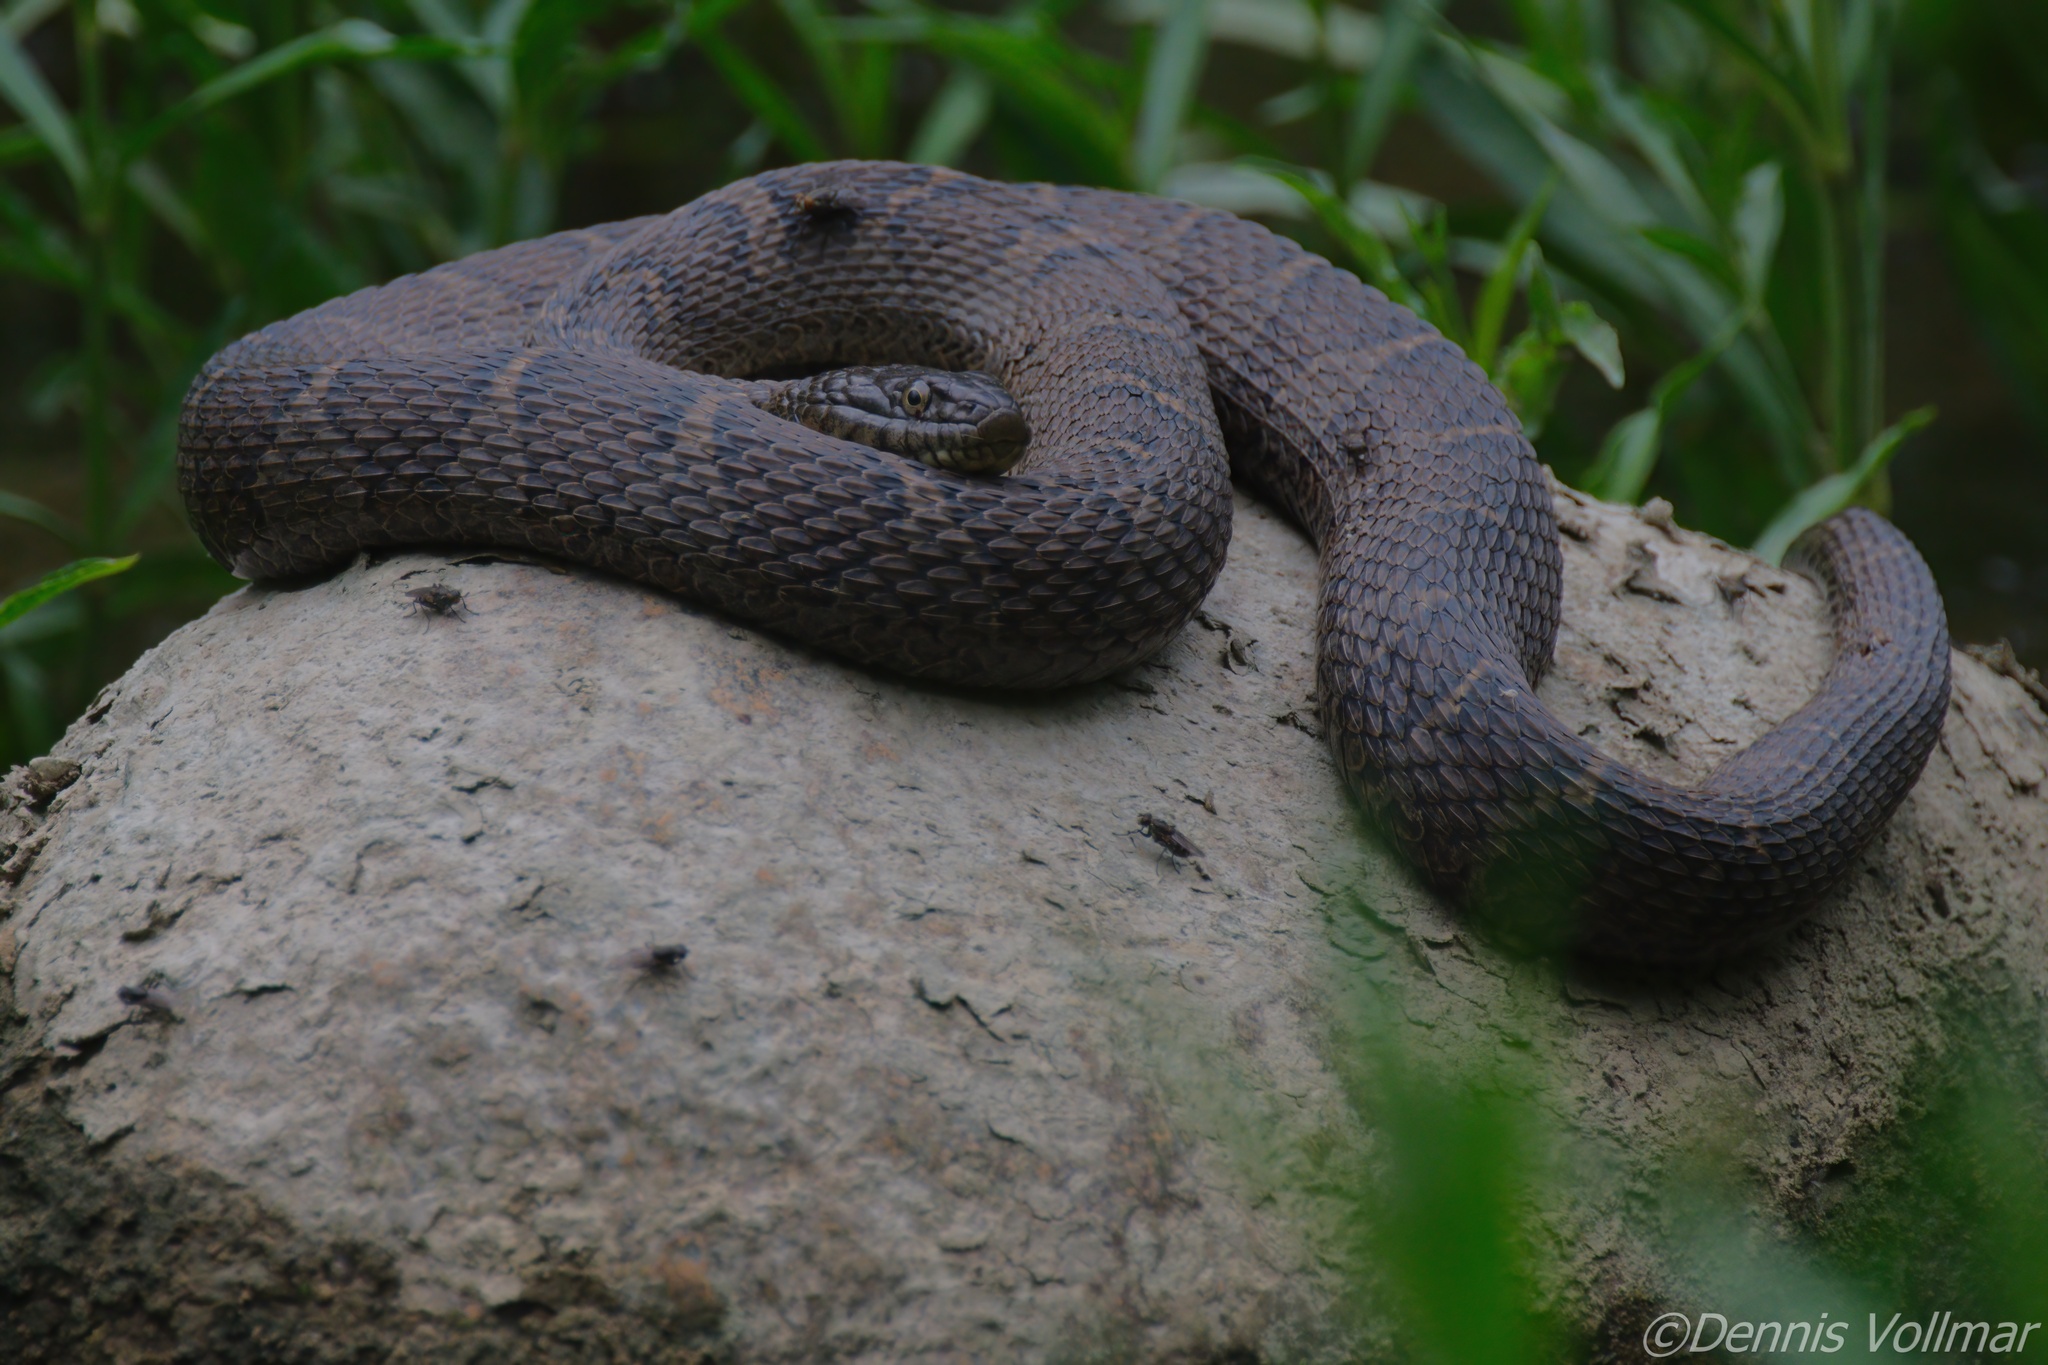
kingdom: Animalia
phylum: Chordata
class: Squamata
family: Colubridae
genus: Nerodia
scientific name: Nerodia sipedon
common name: Northern water snake
